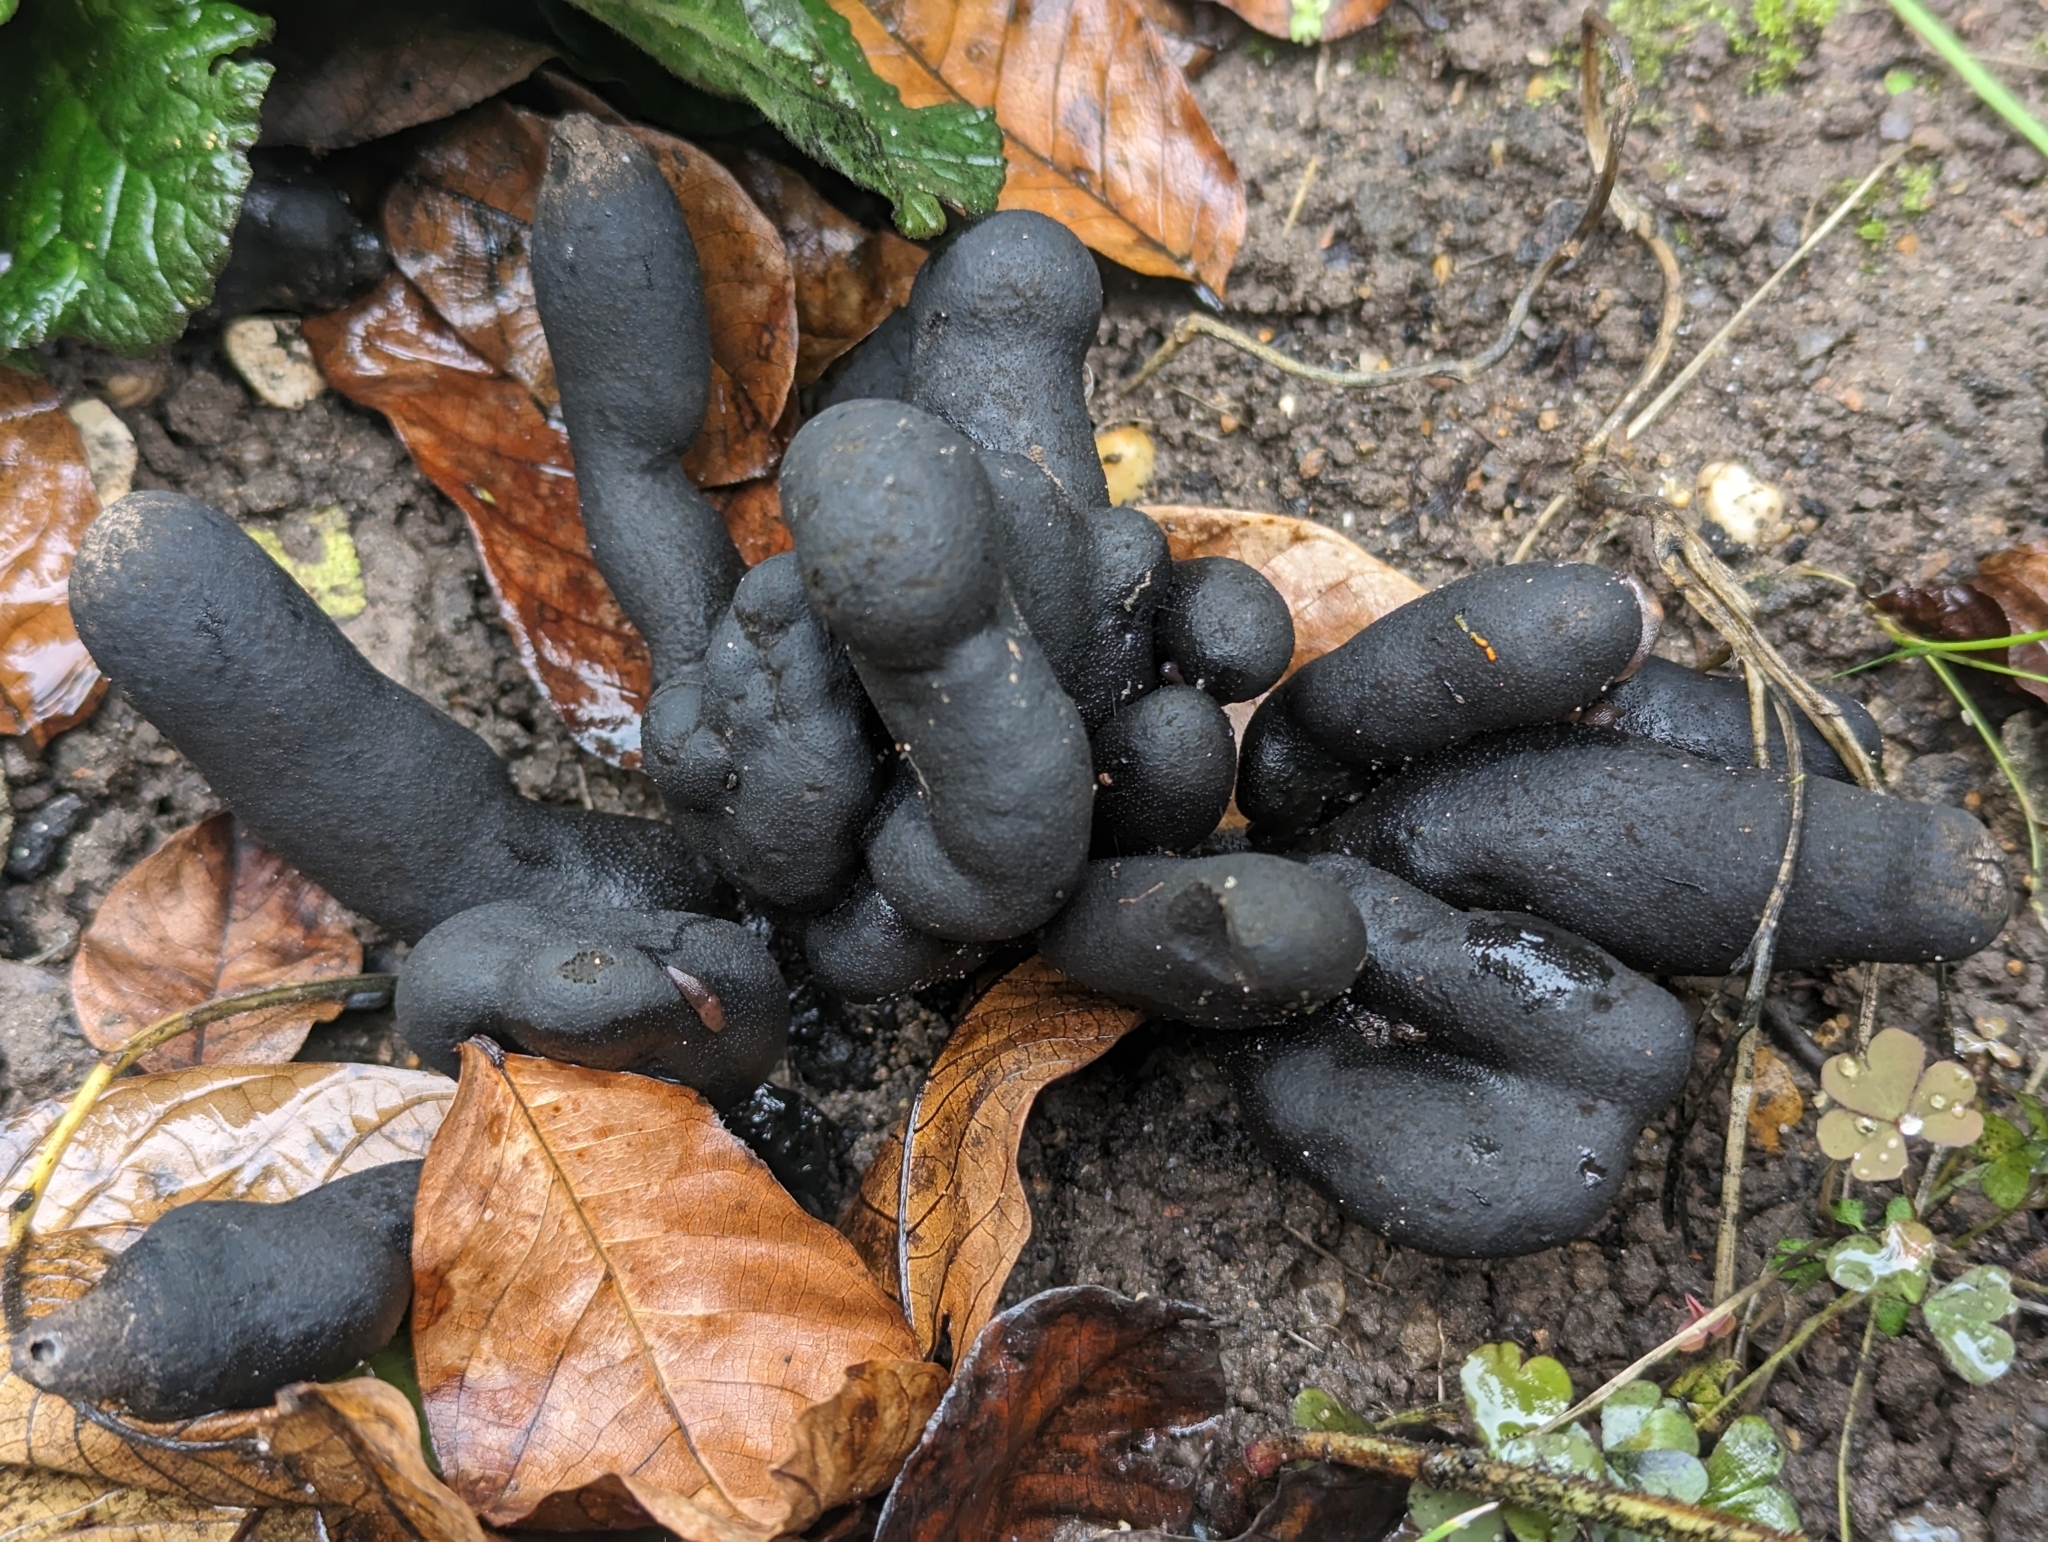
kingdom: Fungi
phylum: Ascomycota
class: Sordariomycetes
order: Xylariales
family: Xylariaceae
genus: Xylaria
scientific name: Xylaria polymorpha
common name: Dead man's fingers
